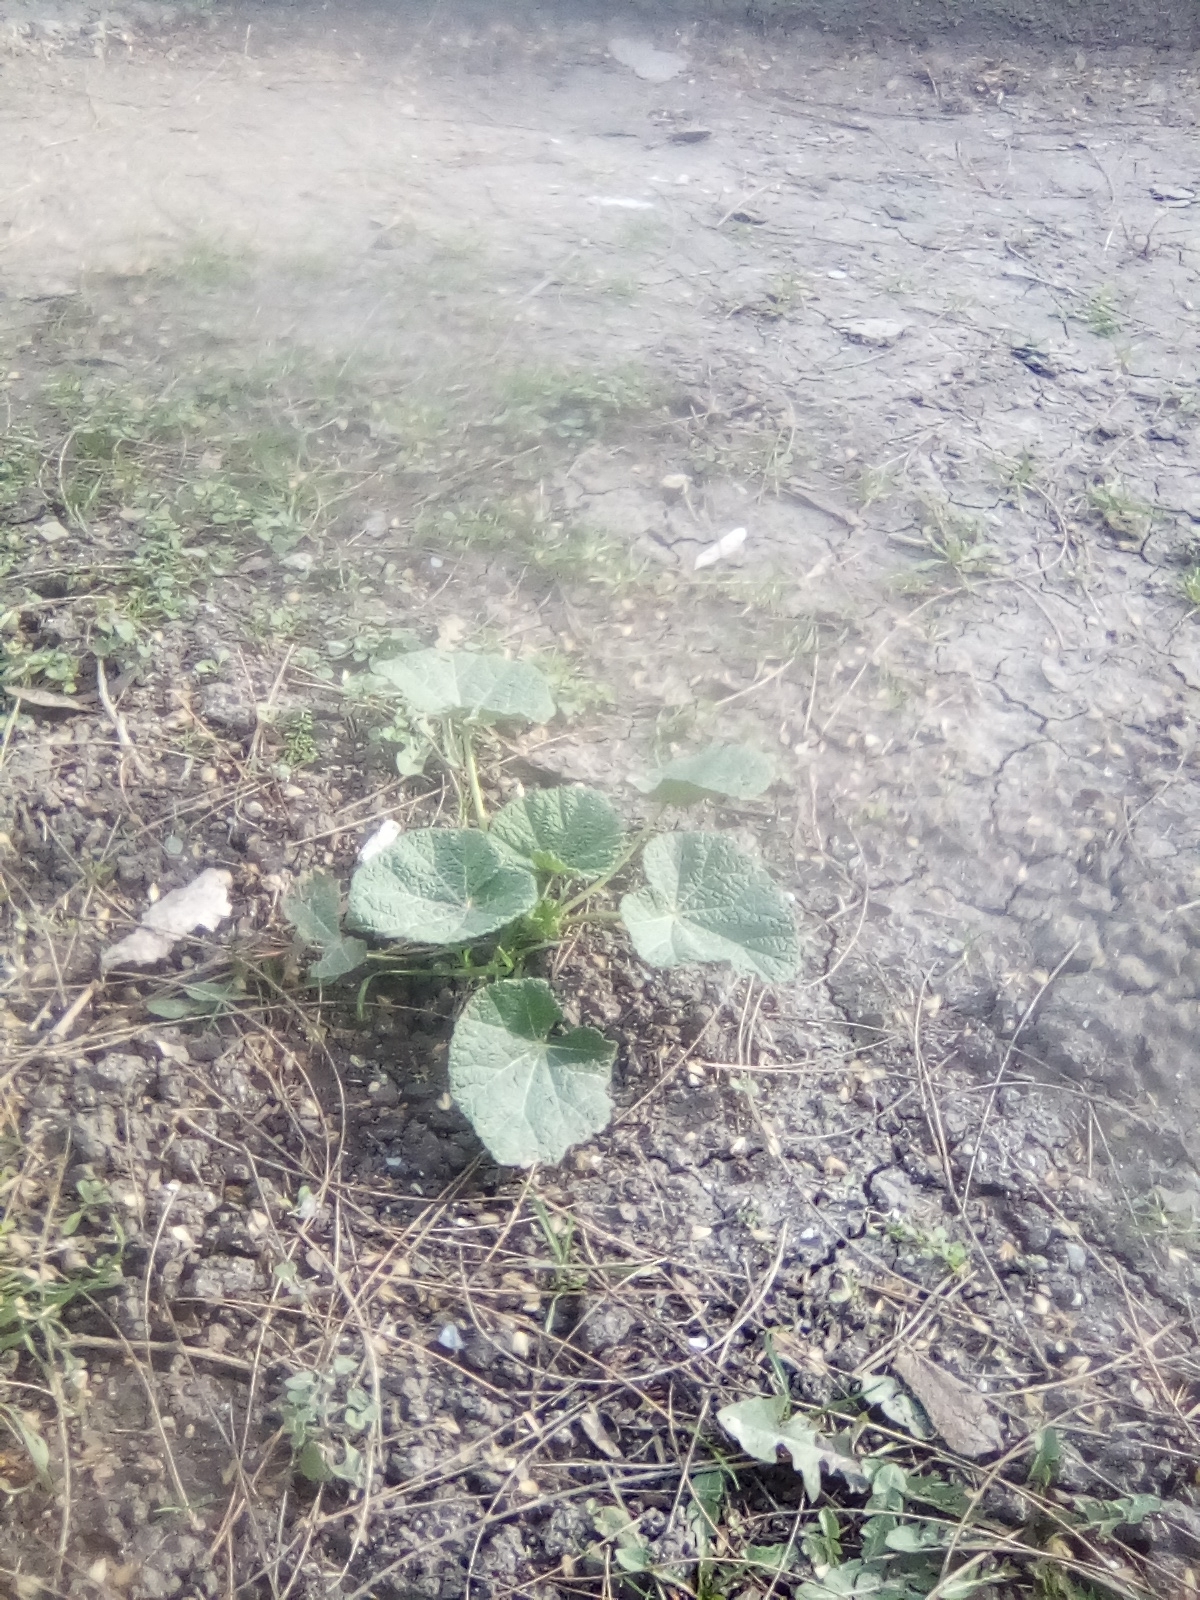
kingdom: Plantae
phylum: Tracheophyta
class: Magnoliopsida
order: Malvales
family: Malvaceae
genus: Alcea
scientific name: Alcea rosea
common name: Hollyhock
